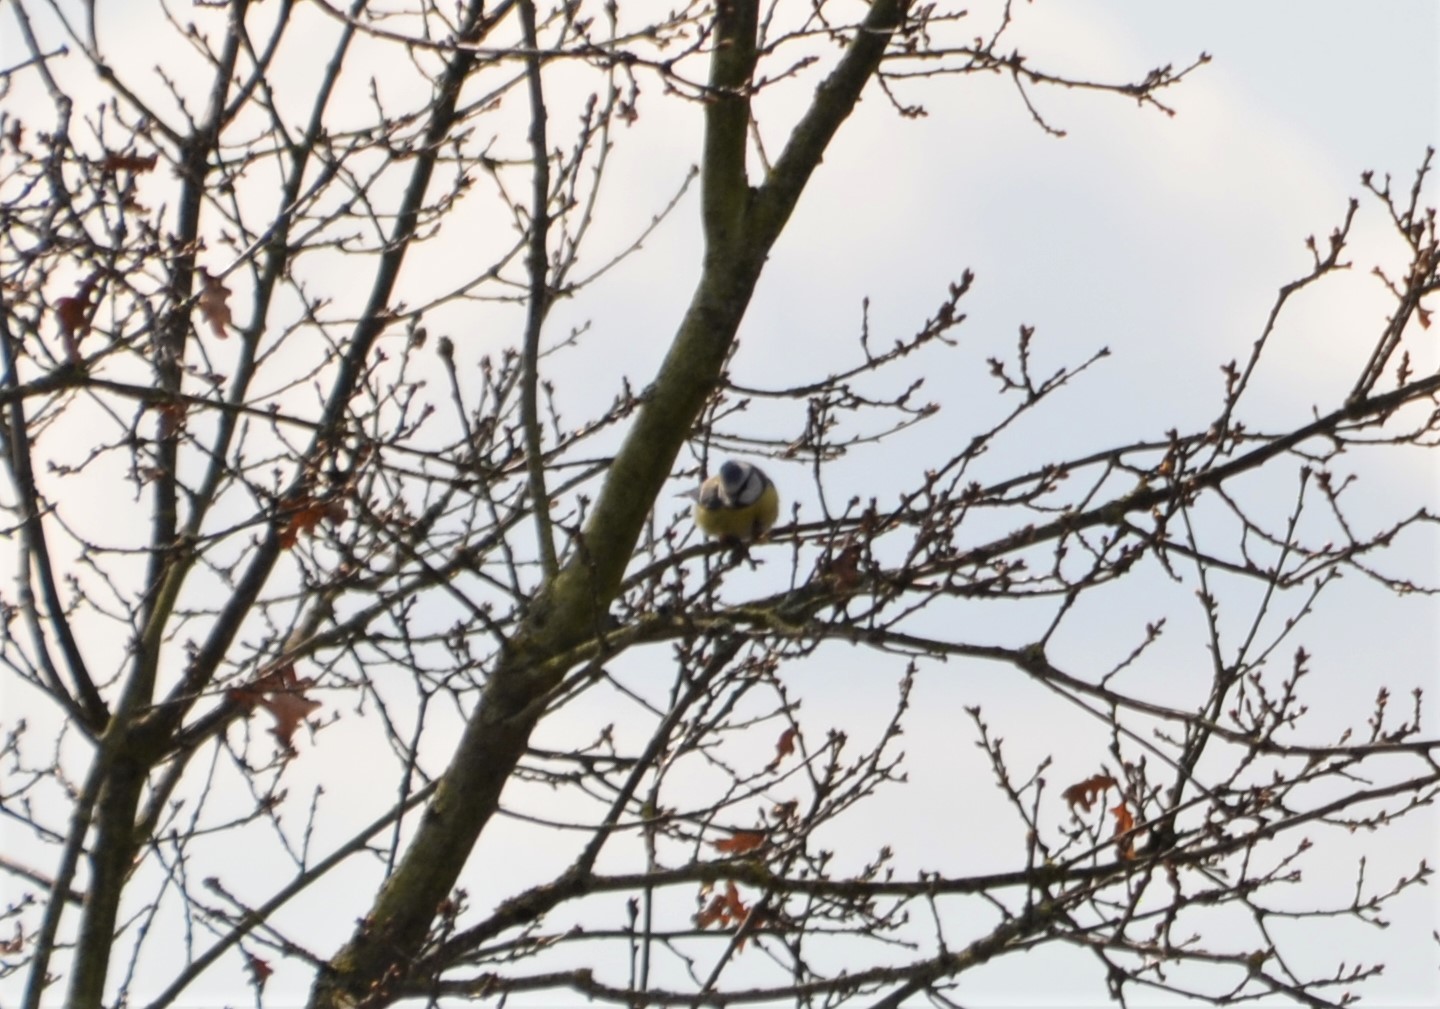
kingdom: Animalia
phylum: Chordata
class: Aves
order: Passeriformes
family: Paridae
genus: Cyanistes
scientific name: Cyanistes caeruleus
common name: Eurasian blue tit
